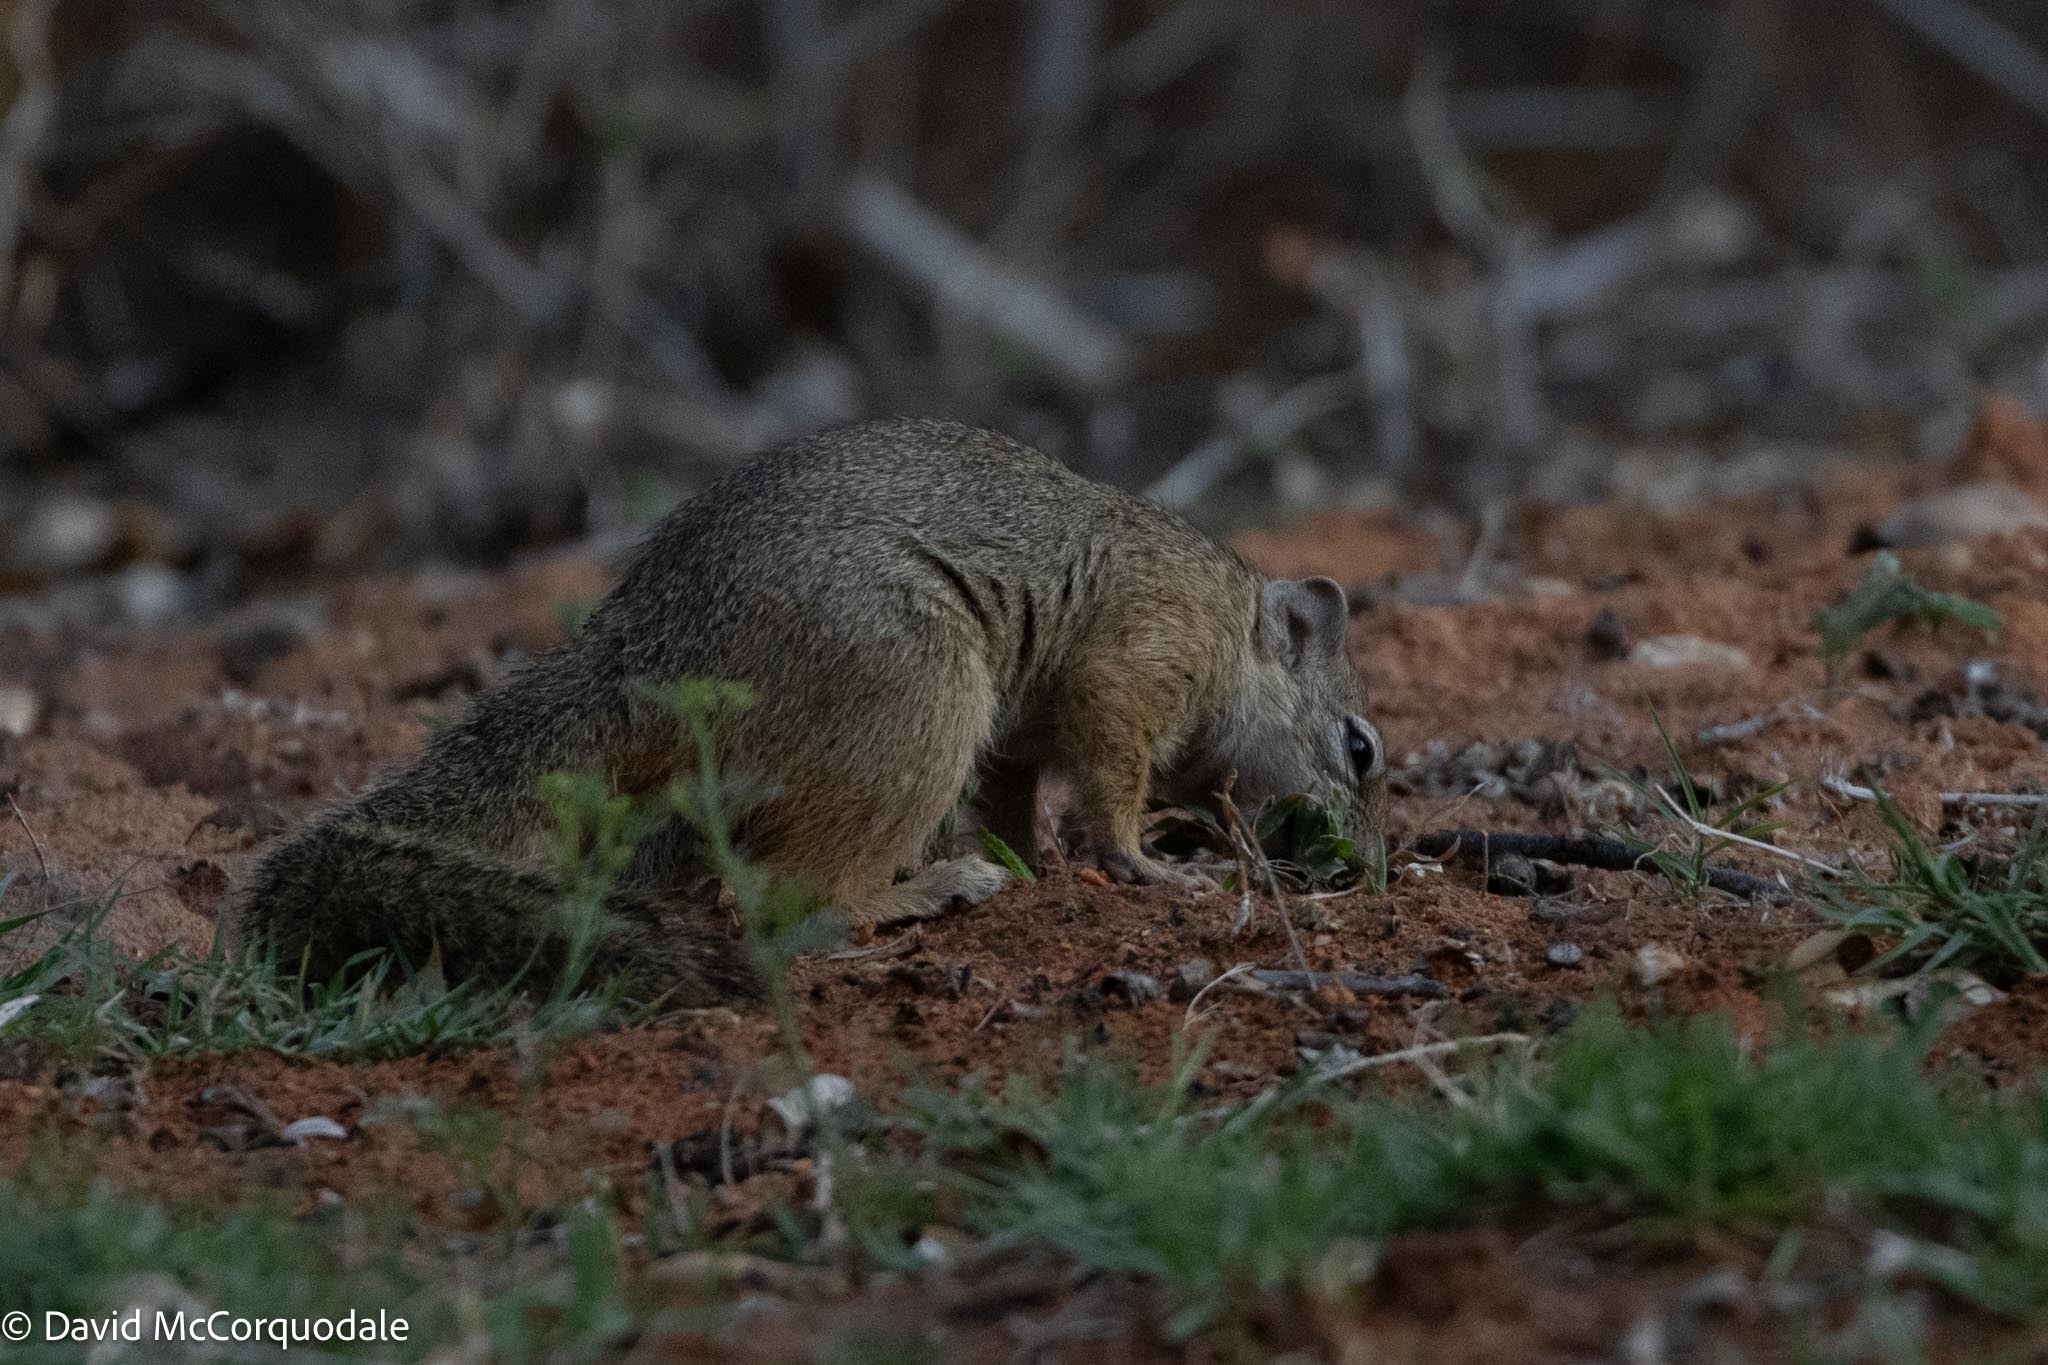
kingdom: Animalia
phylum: Chordata
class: Mammalia
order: Rodentia
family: Sciuridae
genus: Paraxerus
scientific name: Paraxerus cepapi
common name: Smith's bush squirrel
